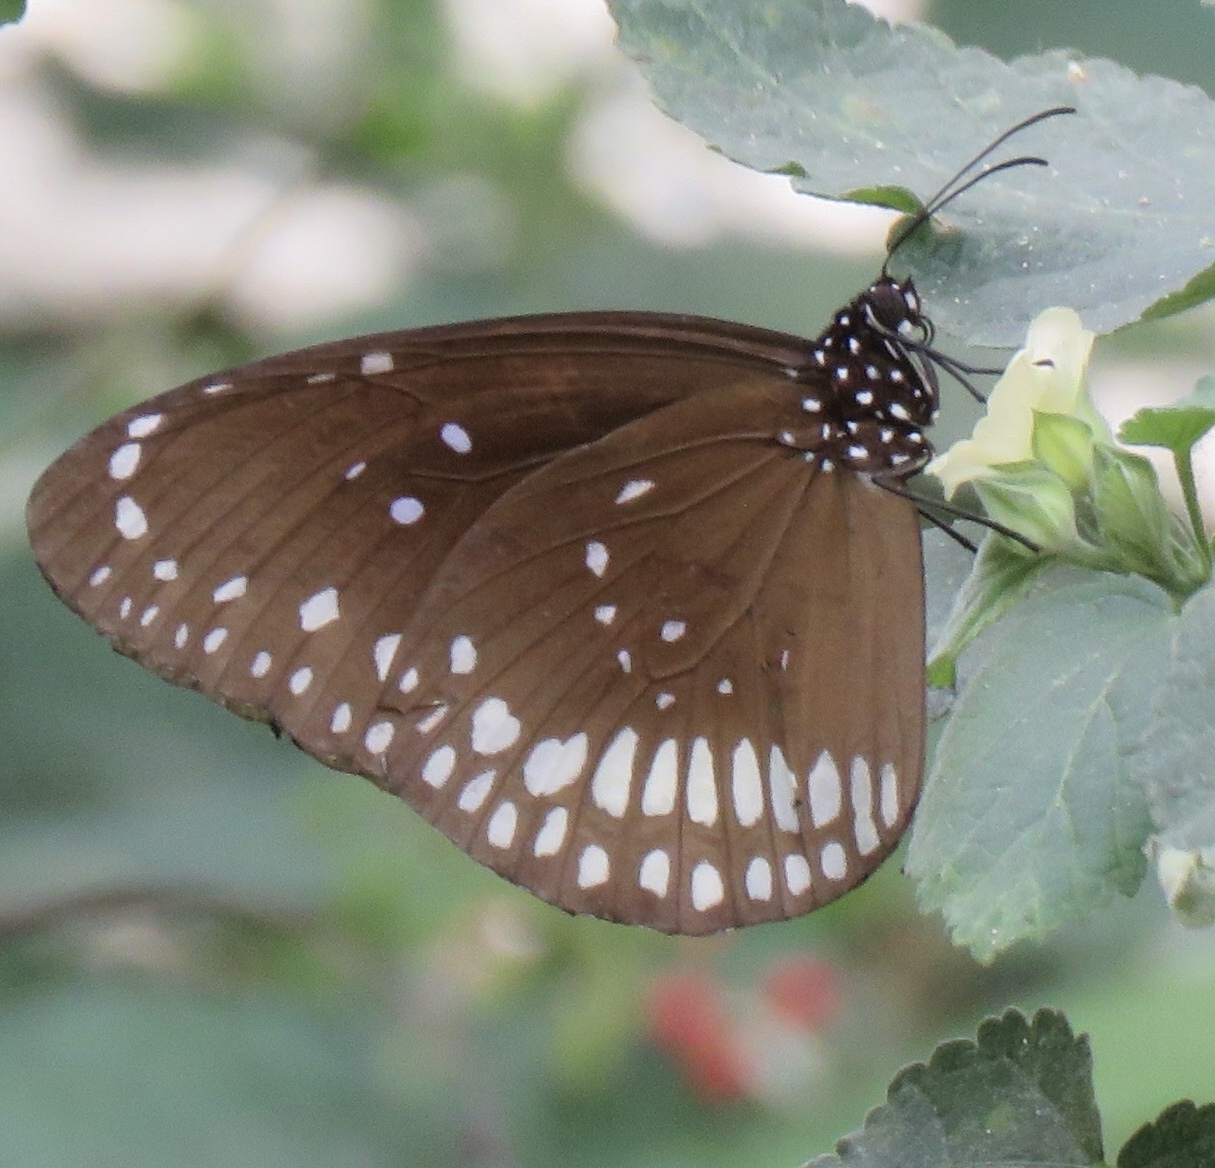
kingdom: Animalia
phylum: Arthropoda
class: Insecta
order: Lepidoptera
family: Nymphalidae
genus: Euploea
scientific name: Euploea core
